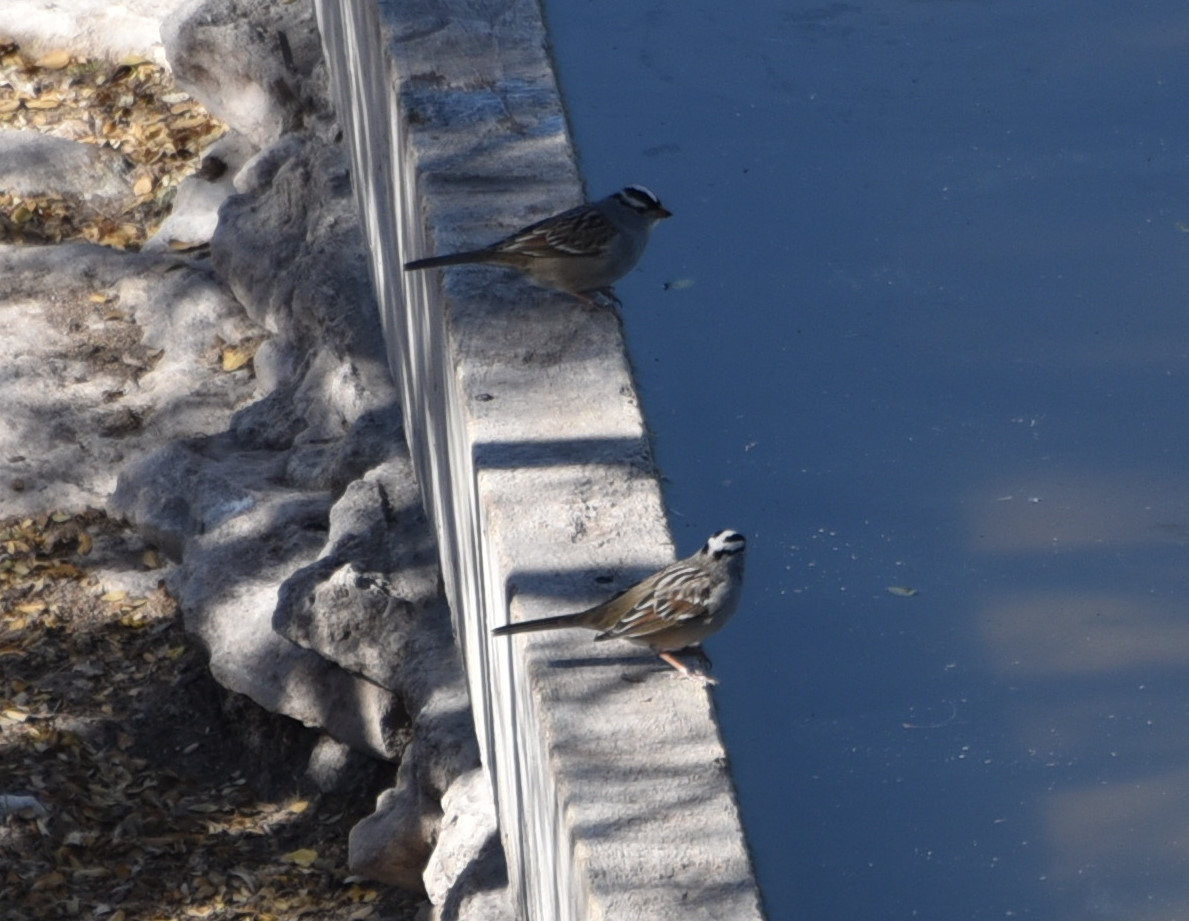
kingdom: Animalia
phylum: Chordata
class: Aves
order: Passeriformes
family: Passerellidae
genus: Zonotrichia
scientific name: Zonotrichia leucophrys
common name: White-crowned sparrow
